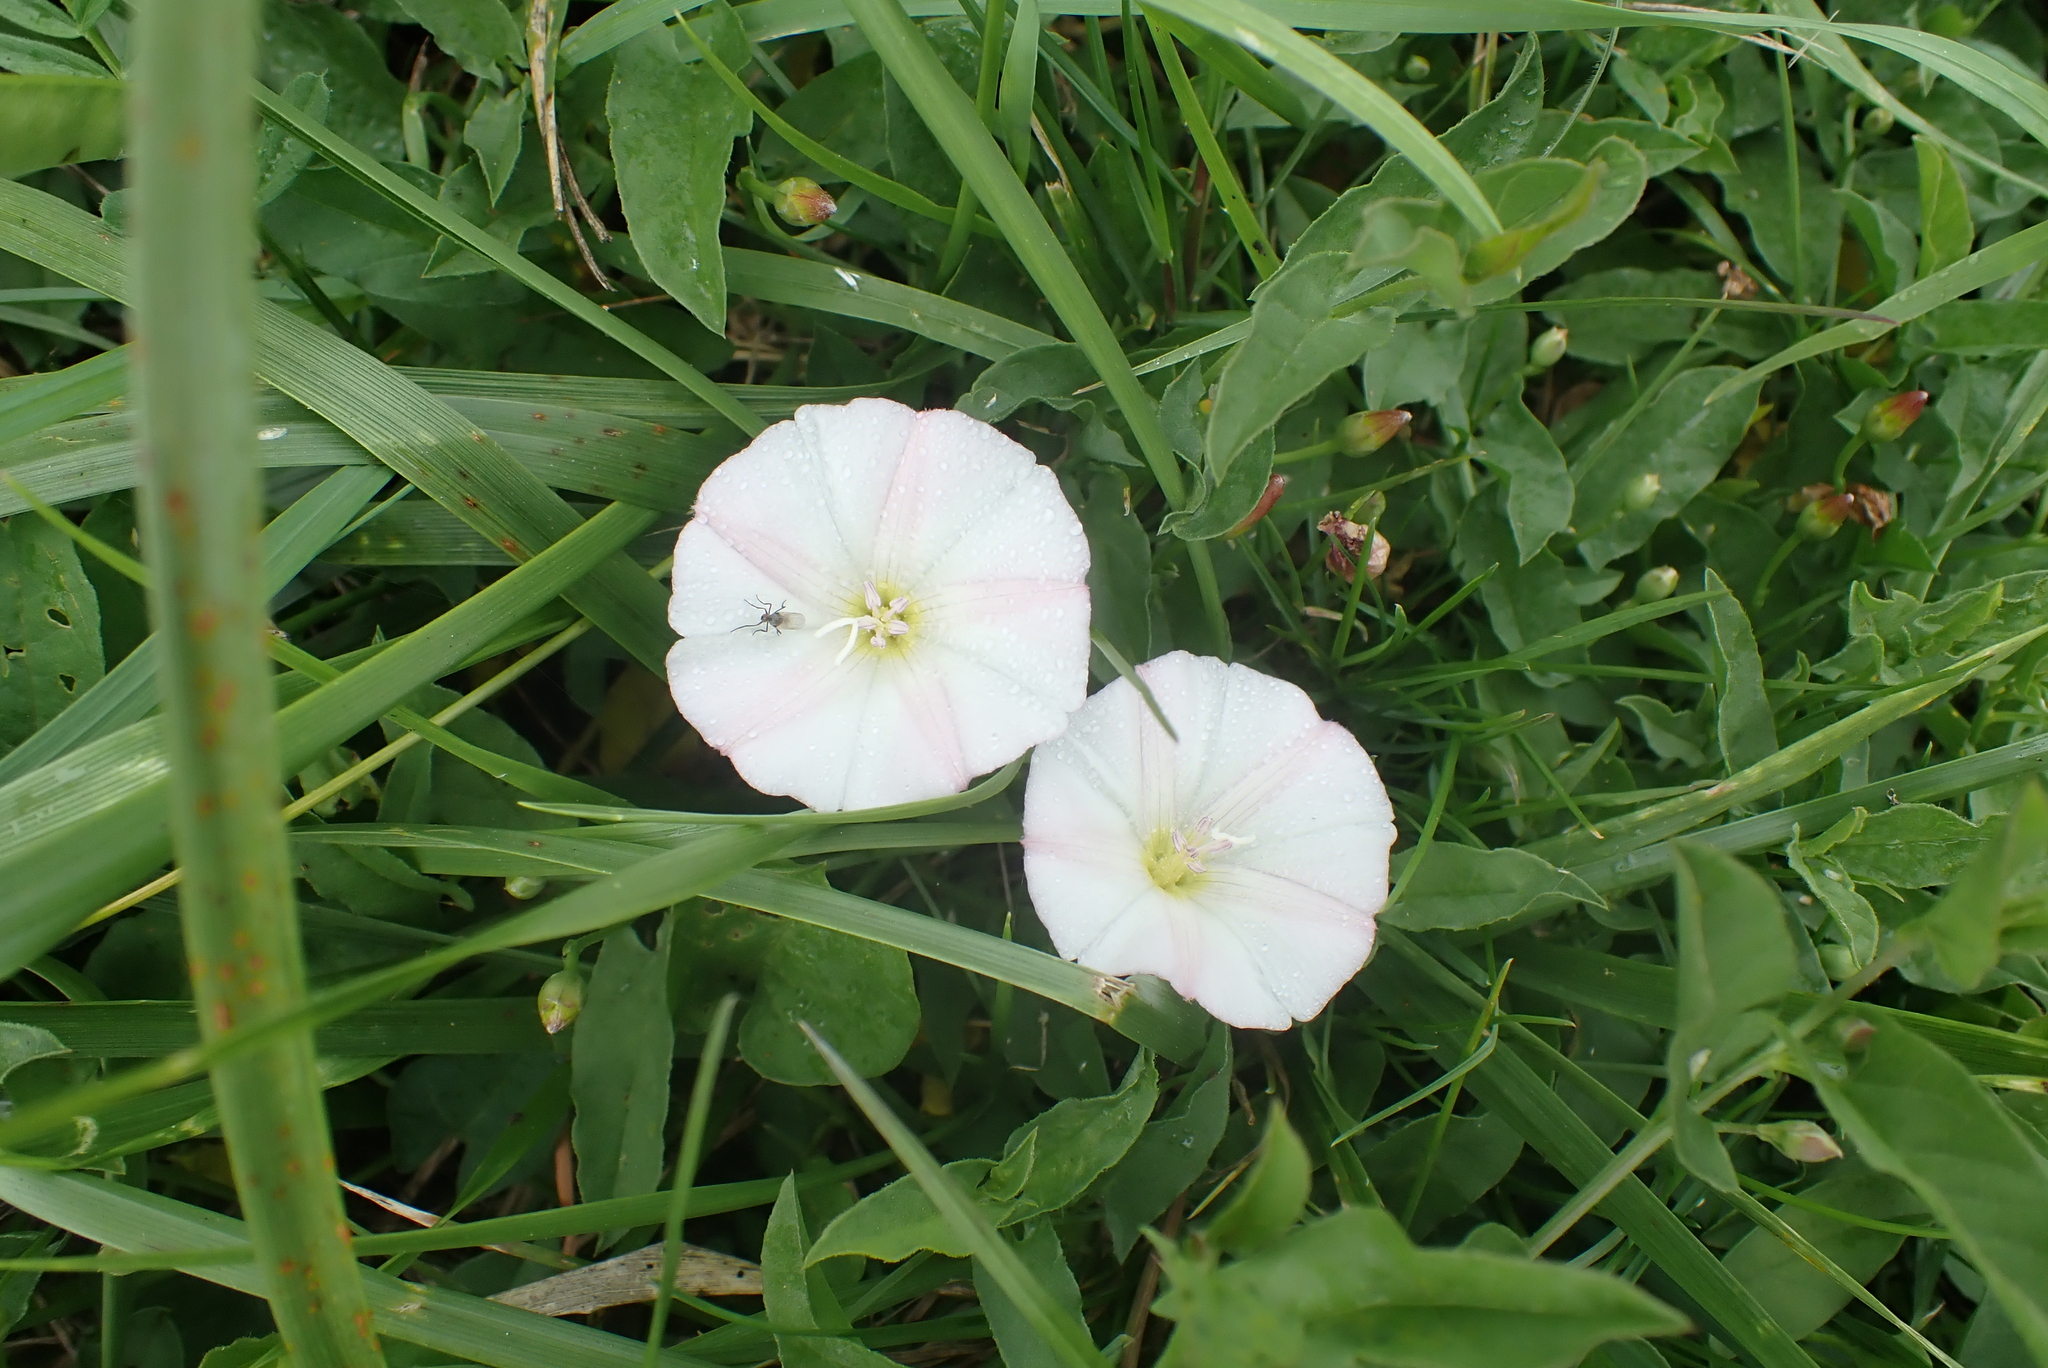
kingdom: Plantae
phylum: Tracheophyta
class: Magnoliopsida
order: Solanales
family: Convolvulaceae
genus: Convolvulus
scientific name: Convolvulus arvensis
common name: Field bindweed
